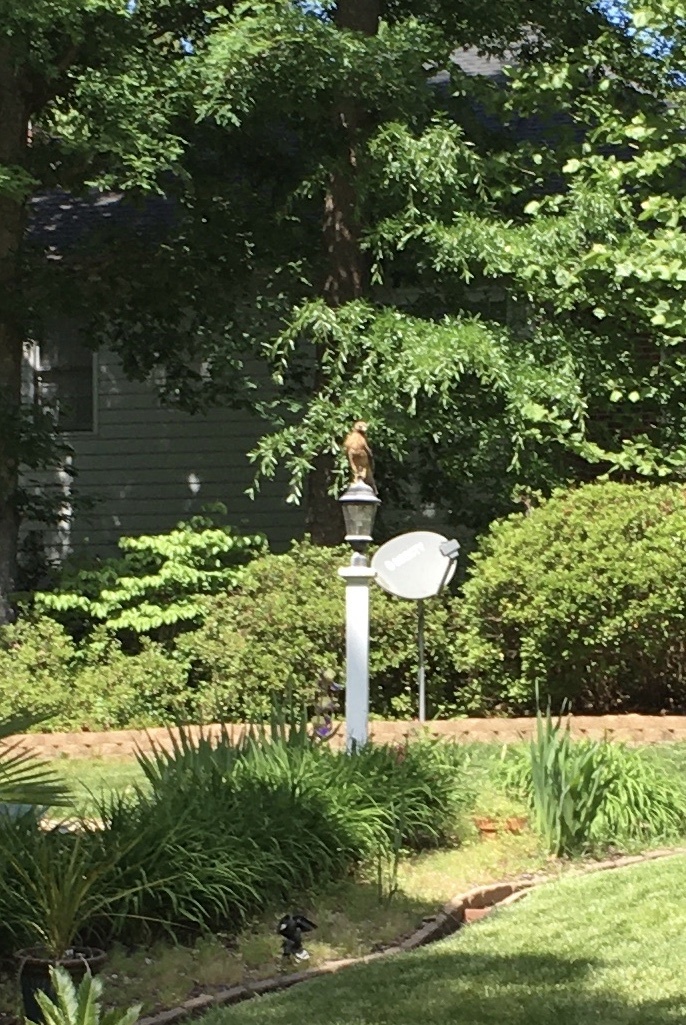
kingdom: Animalia
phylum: Chordata
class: Aves
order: Accipitriformes
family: Accipitridae
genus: Buteo
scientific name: Buteo lineatus
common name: Red-shouldered hawk
